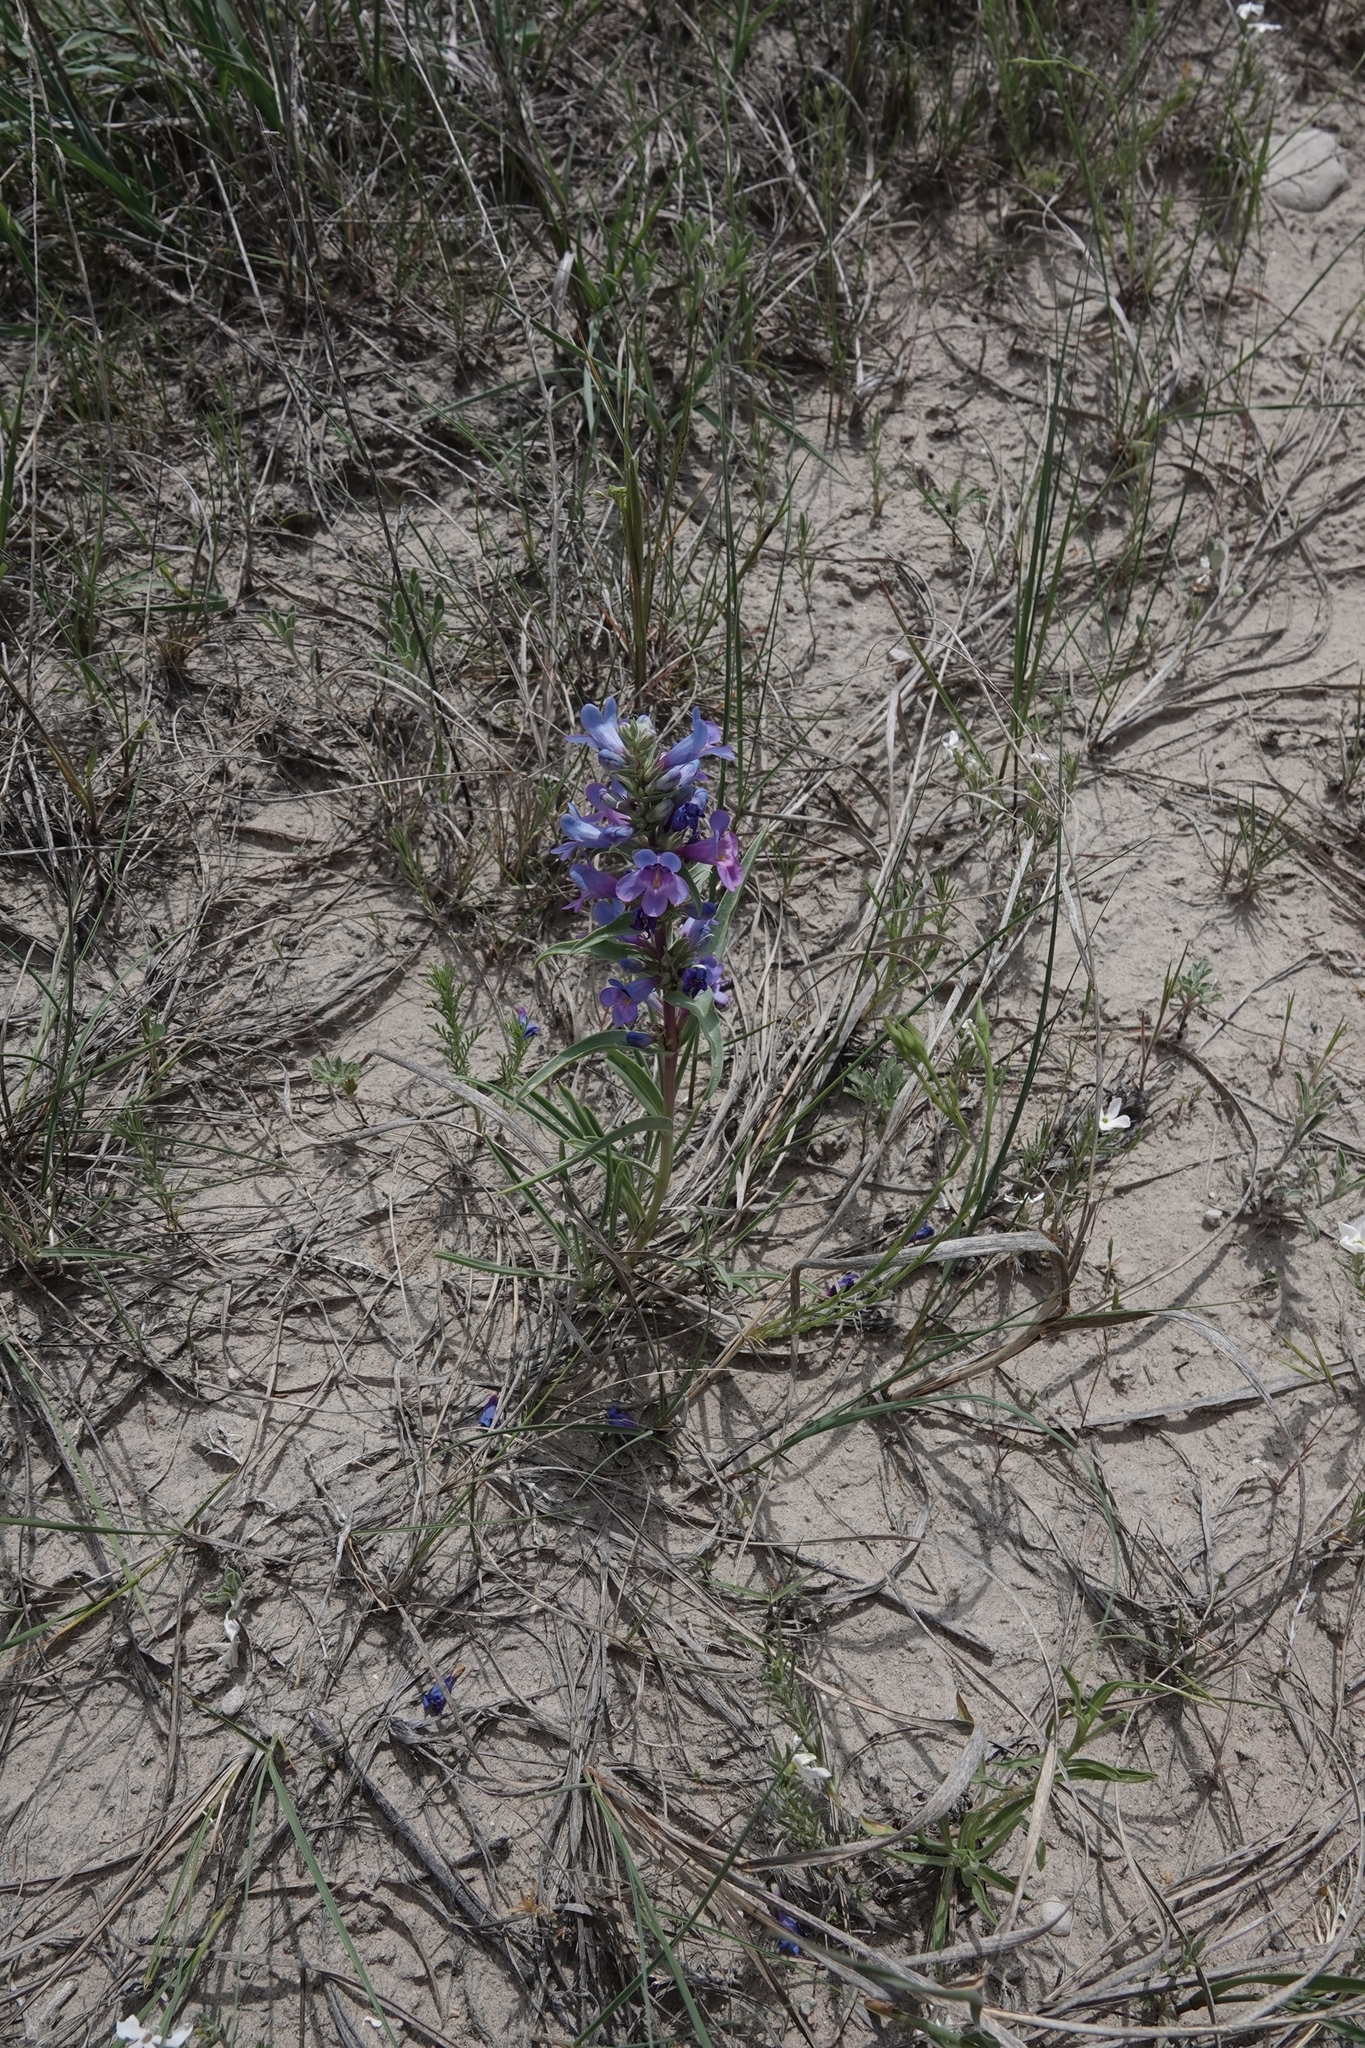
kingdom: Plantae
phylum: Tracheophyta
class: Magnoliopsida
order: Lamiales
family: Plantaginaceae
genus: Penstemon
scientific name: Penstemon angustifolius
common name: Narrow beardtongue
